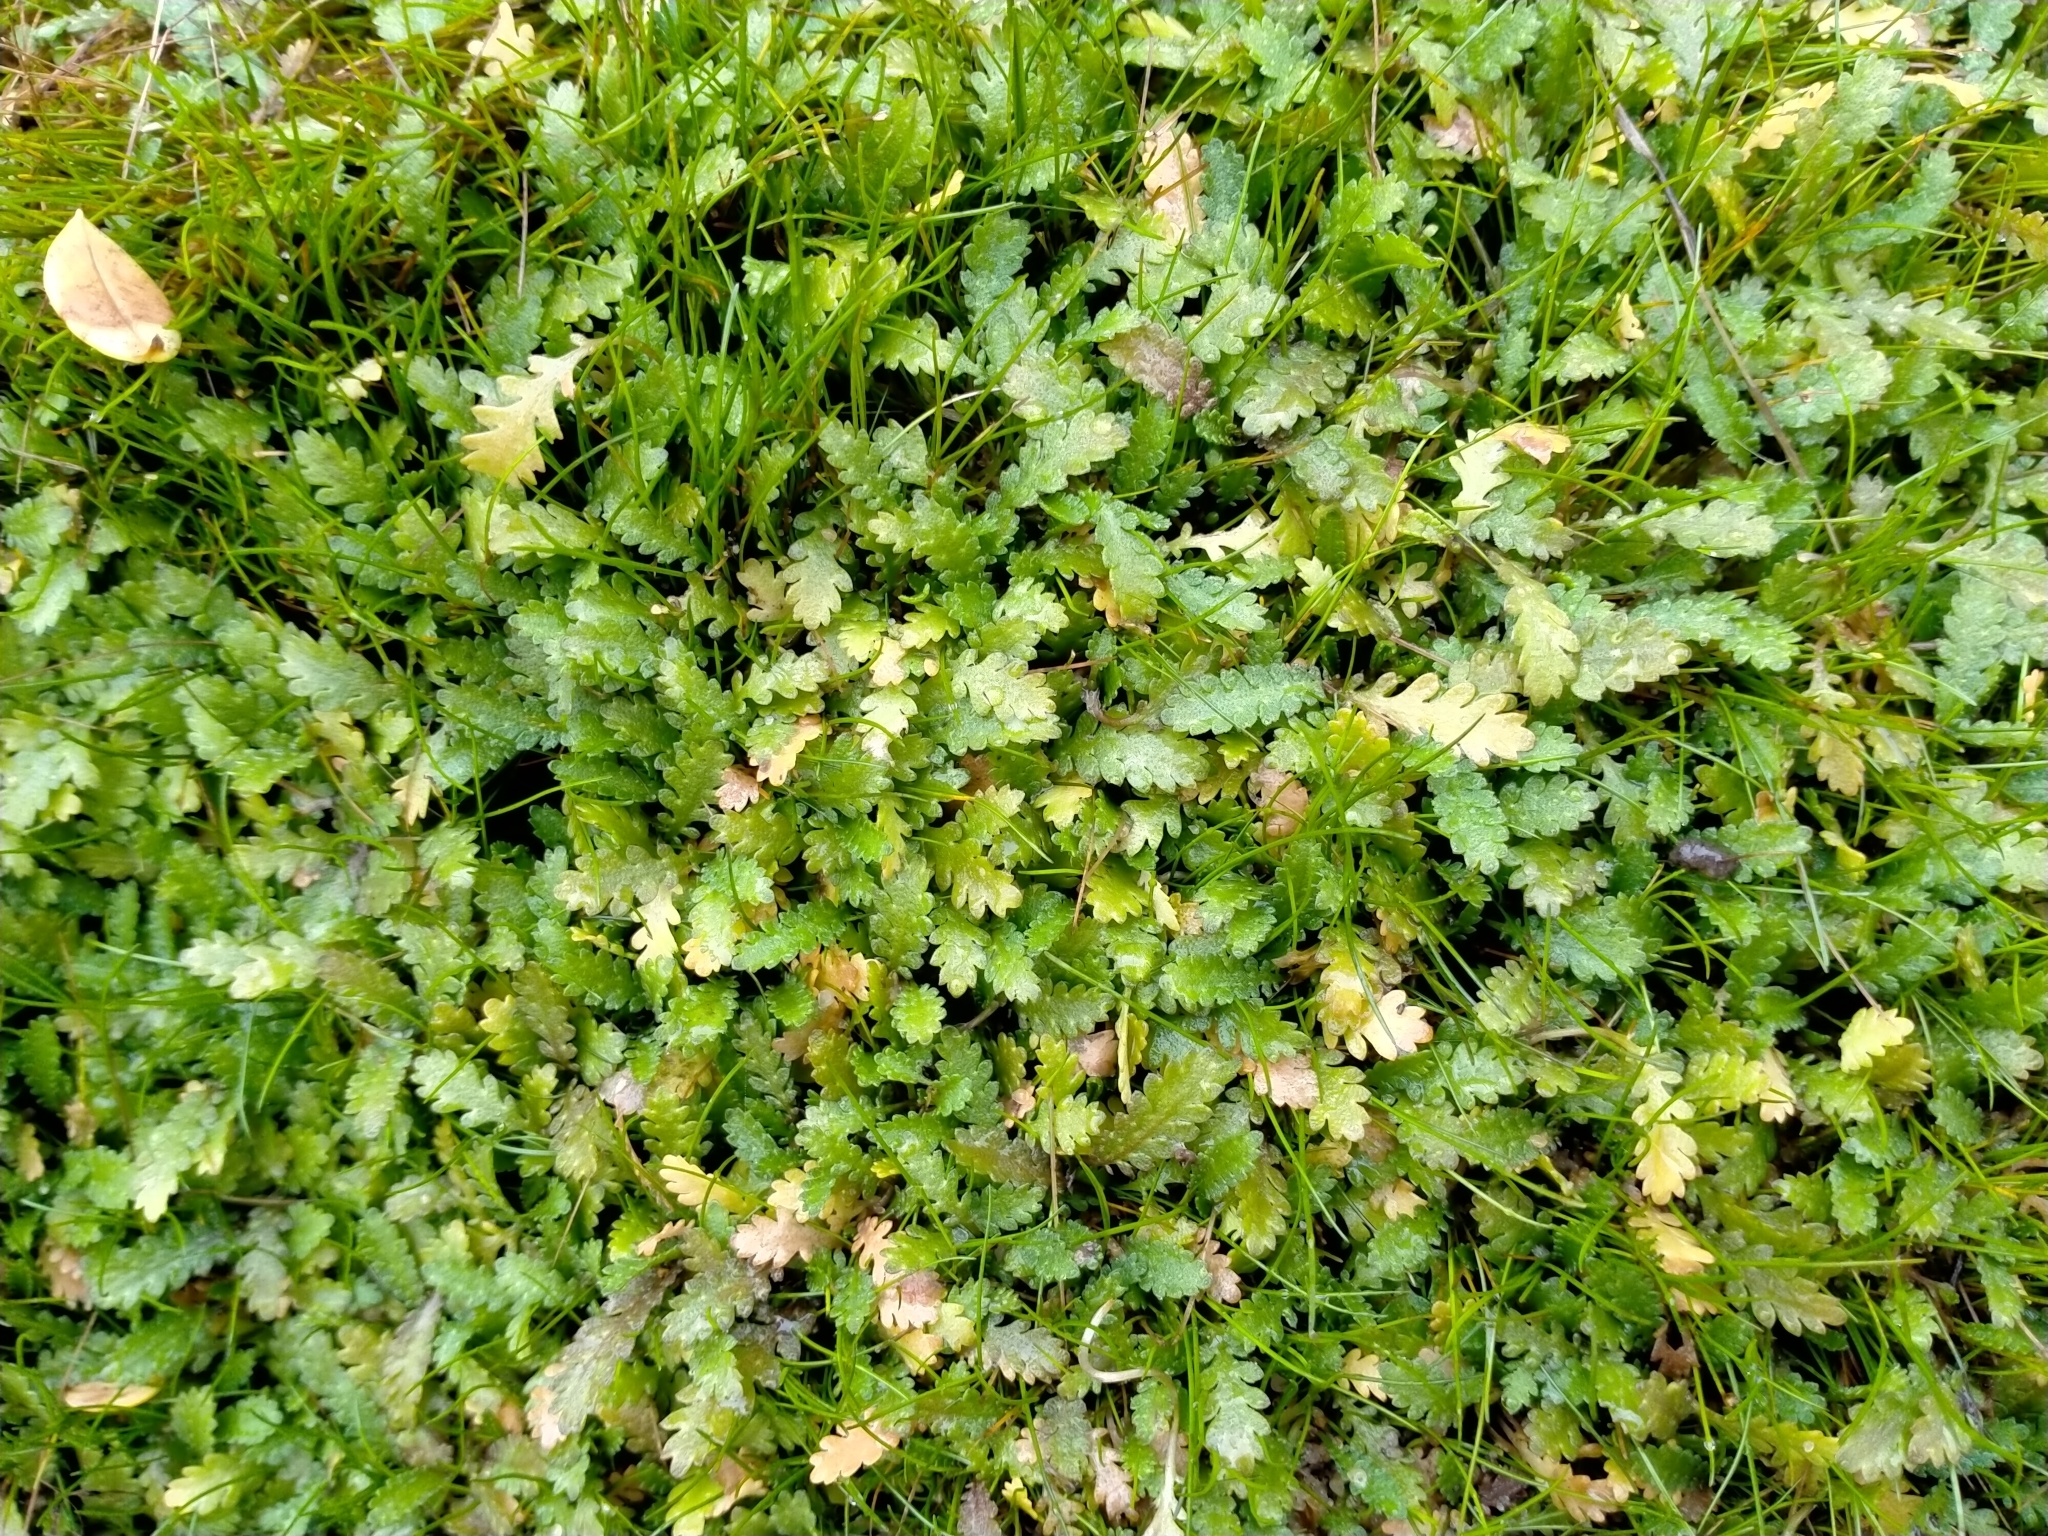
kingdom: Plantae
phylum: Tracheophyta
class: Magnoliopsida
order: Asterales
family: Asteraceae
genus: Leptinella
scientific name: Leptinella dioica
